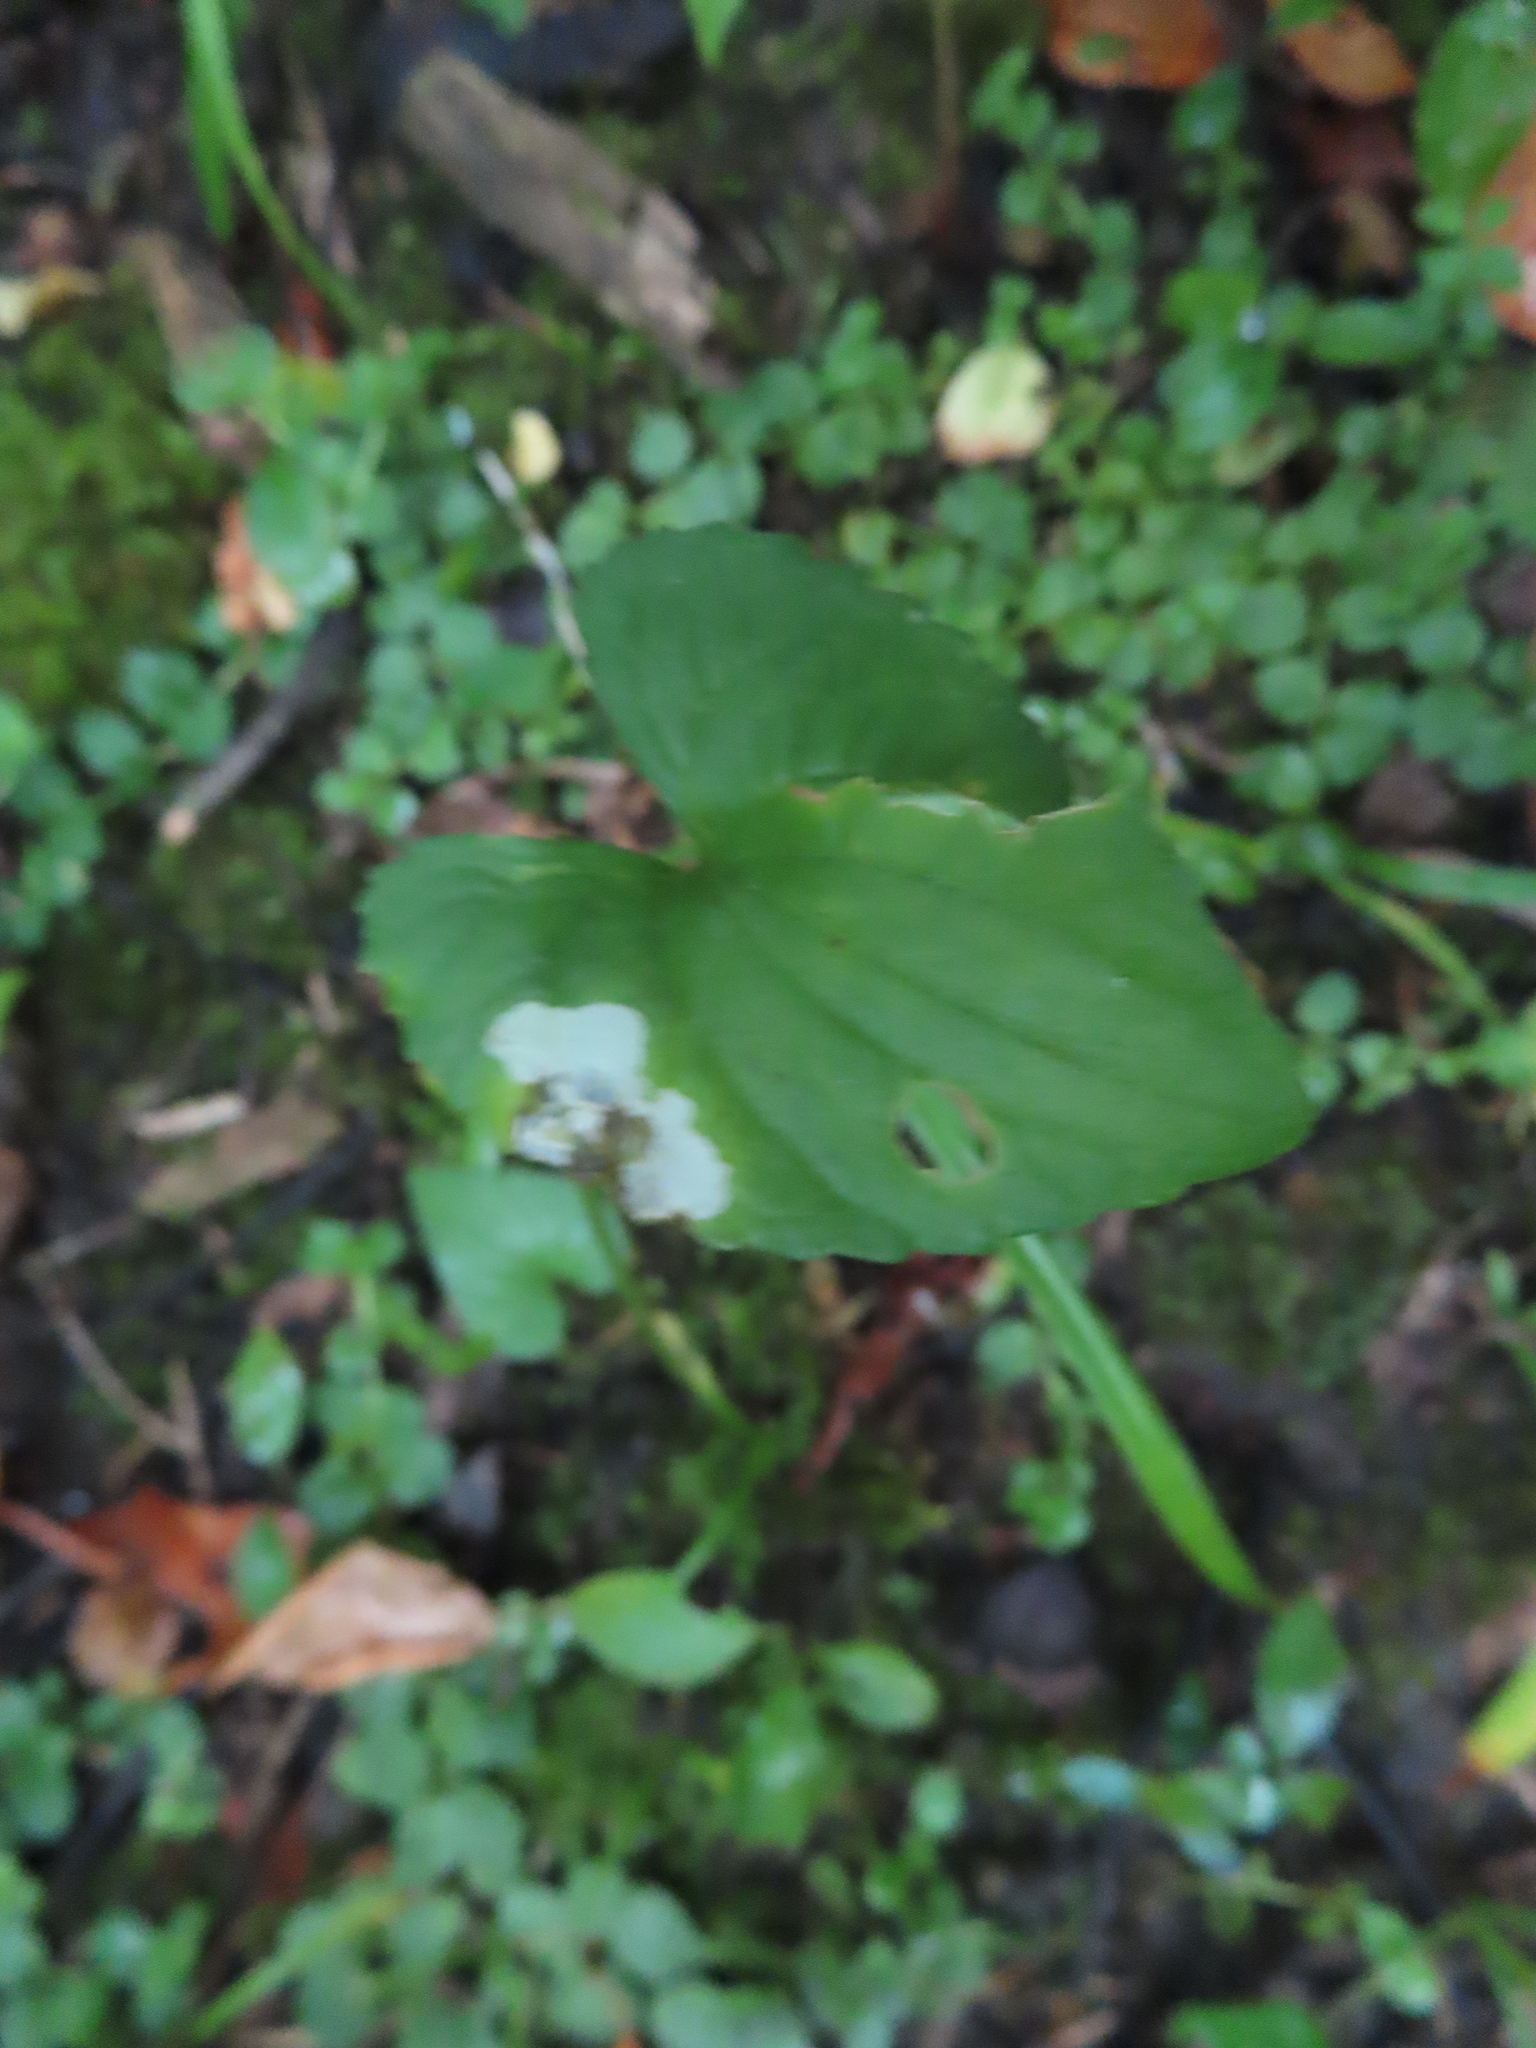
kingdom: Animalia
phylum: Arthropoda
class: Insecta
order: Hymenoptera
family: Tenthredinidae
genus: Nefusa
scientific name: Nefusa ambigua
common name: Violet leafmining sawfly
